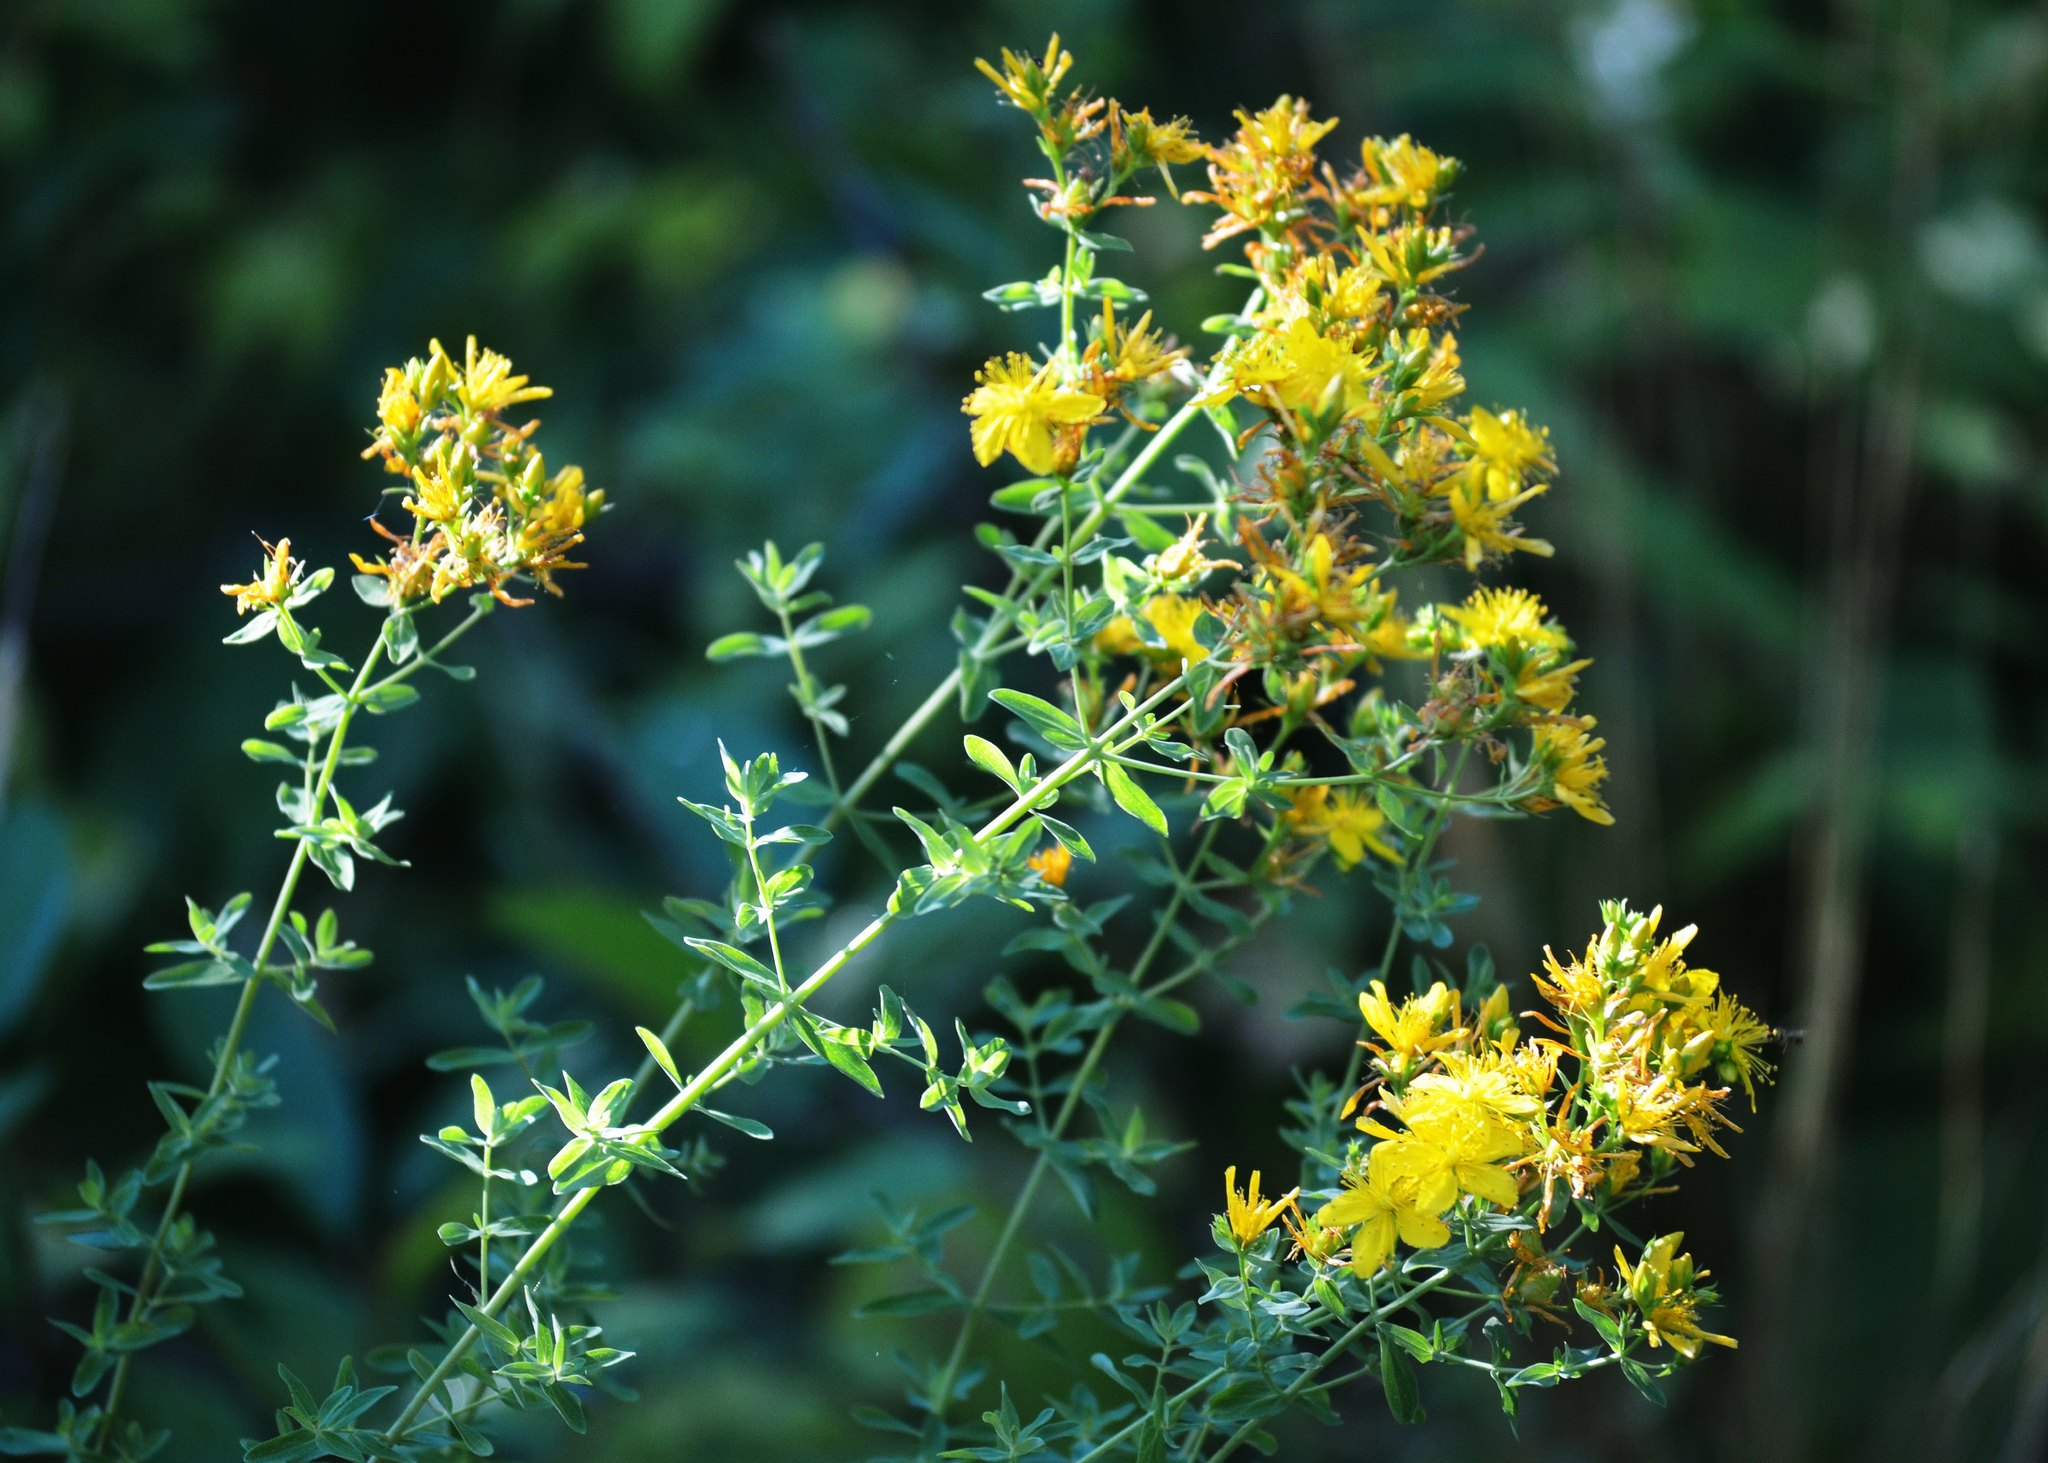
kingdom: Plantae
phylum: Tracheophyta
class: Magnoliopsida
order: Malpighiales
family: Hypericaceae
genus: Hypericum
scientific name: Hypericum perforatum
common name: Common st. johnswort
